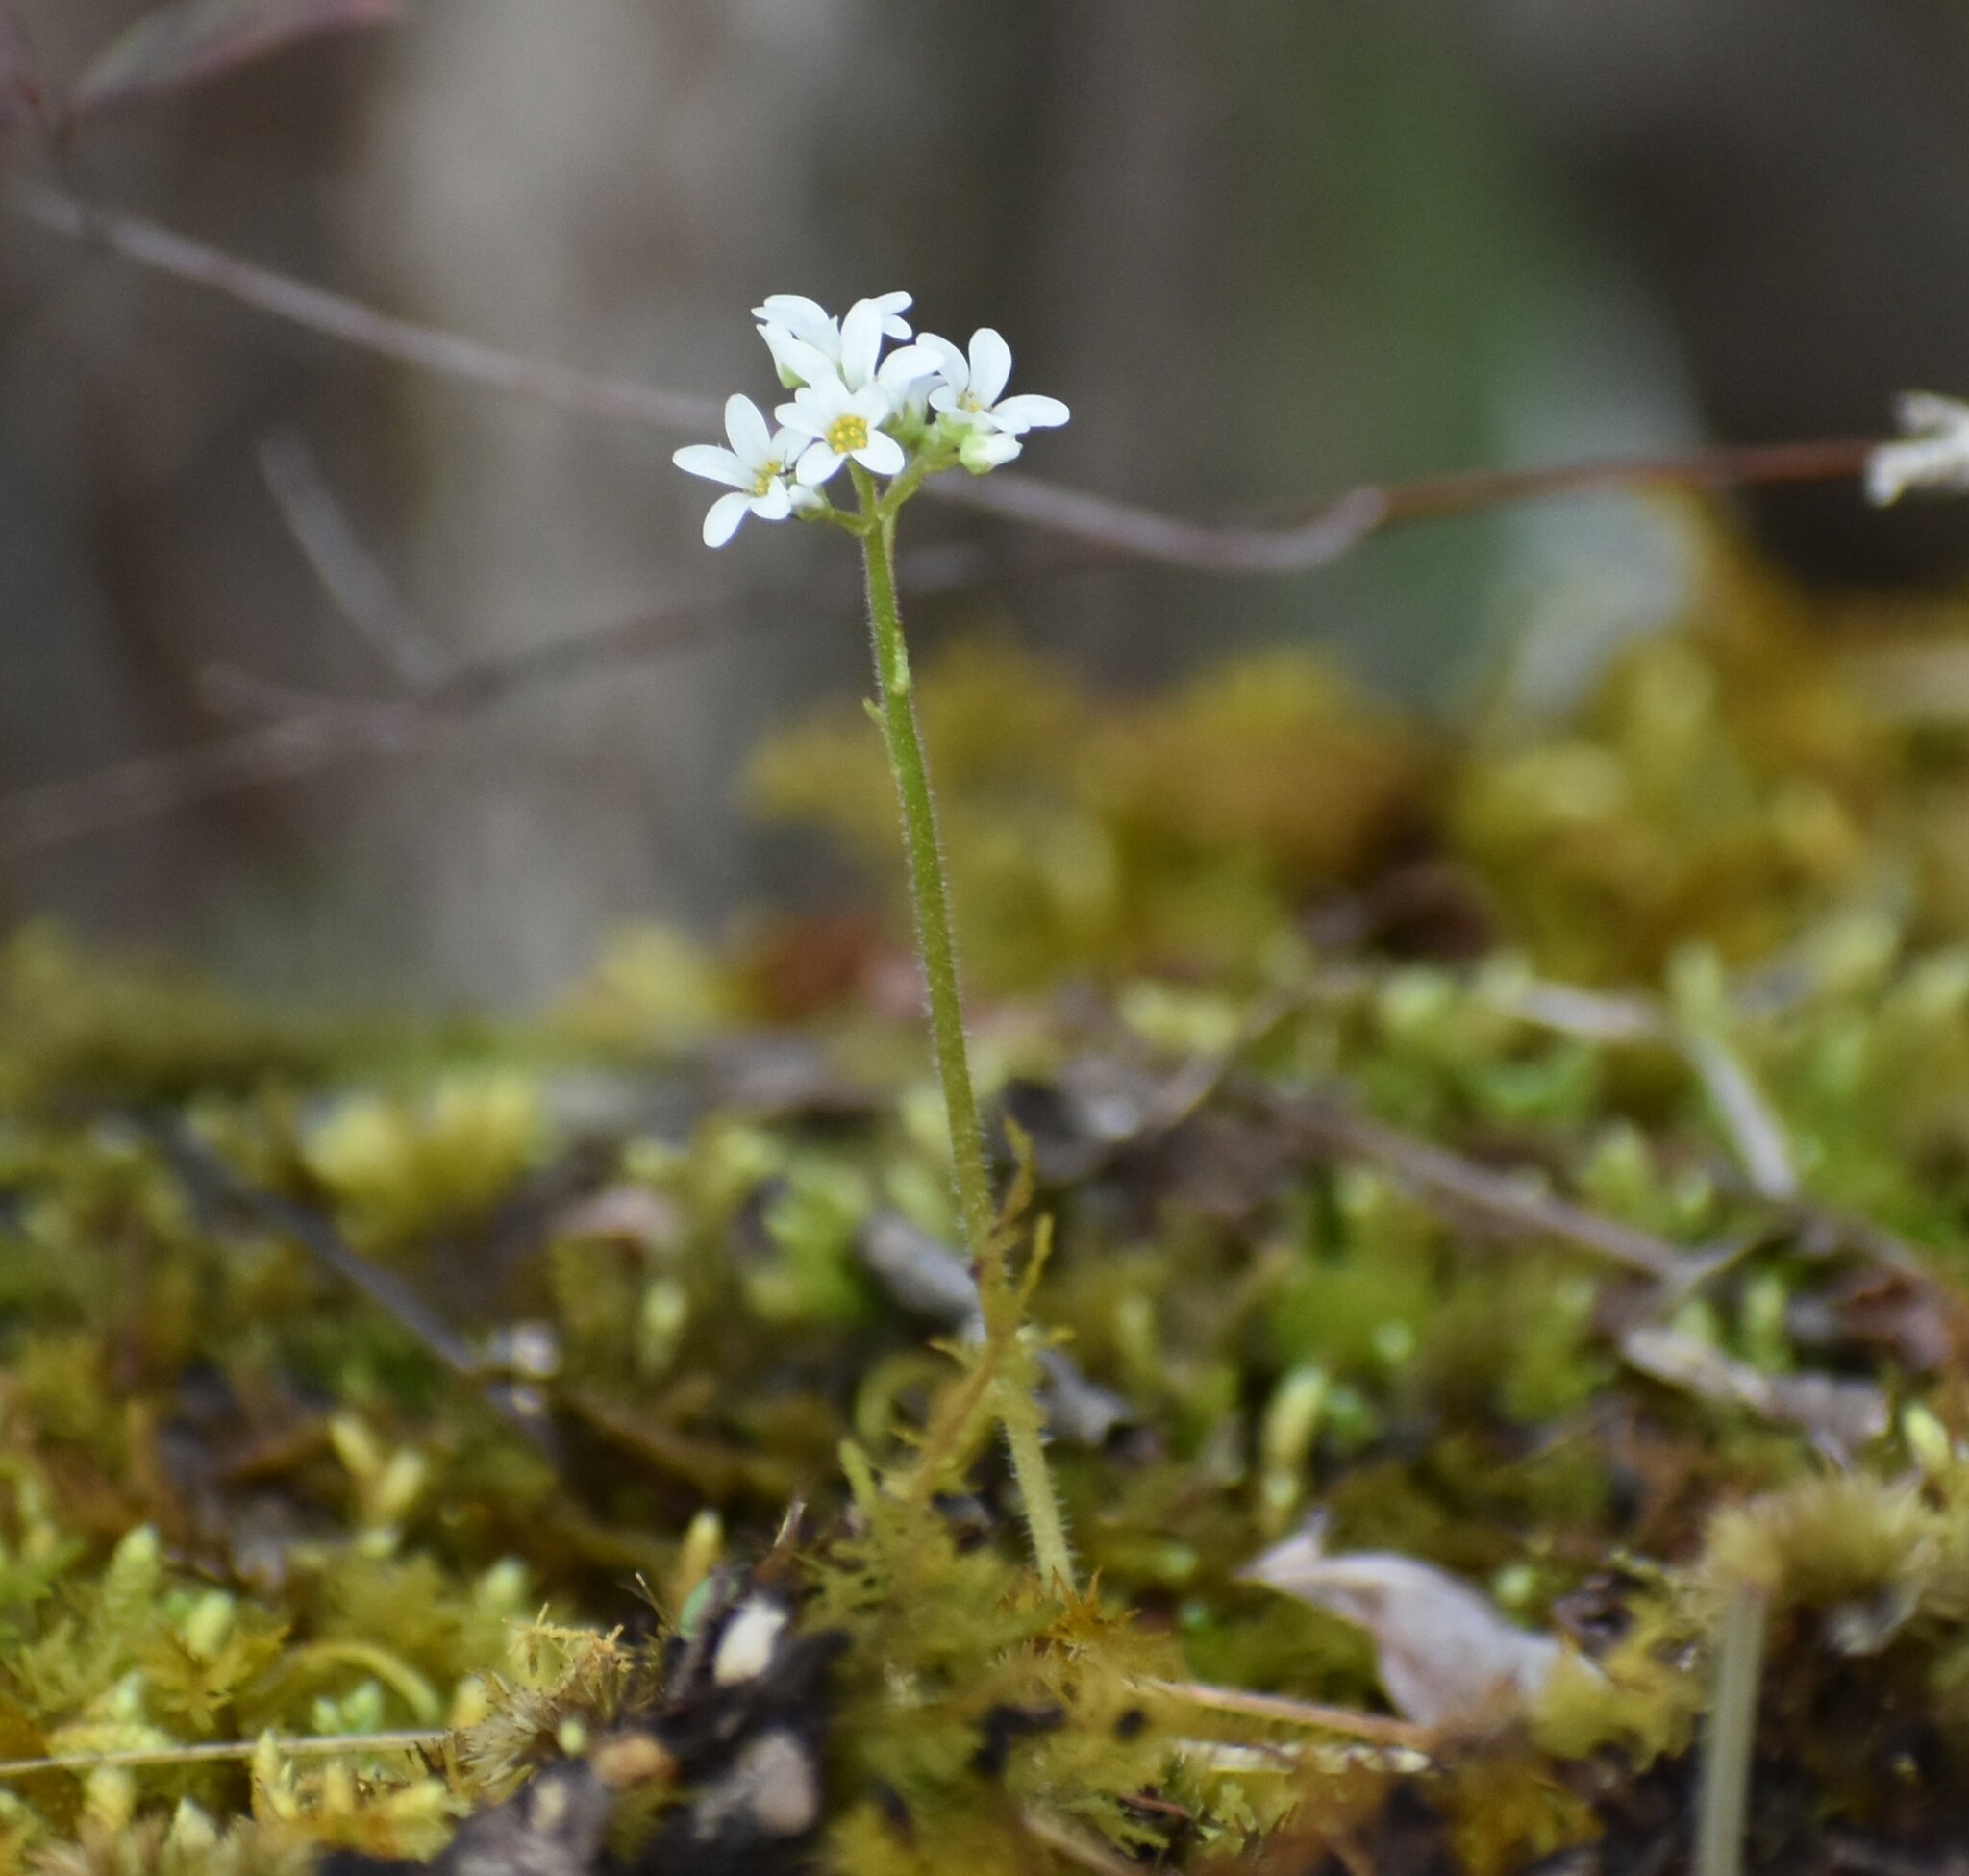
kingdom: Plantae
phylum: Tracheophyta
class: Magnoliopsida
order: Saxifragales
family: Saxifragaceae
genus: Micranthes
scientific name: Micranthes virginiensis
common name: Early saxifrage
